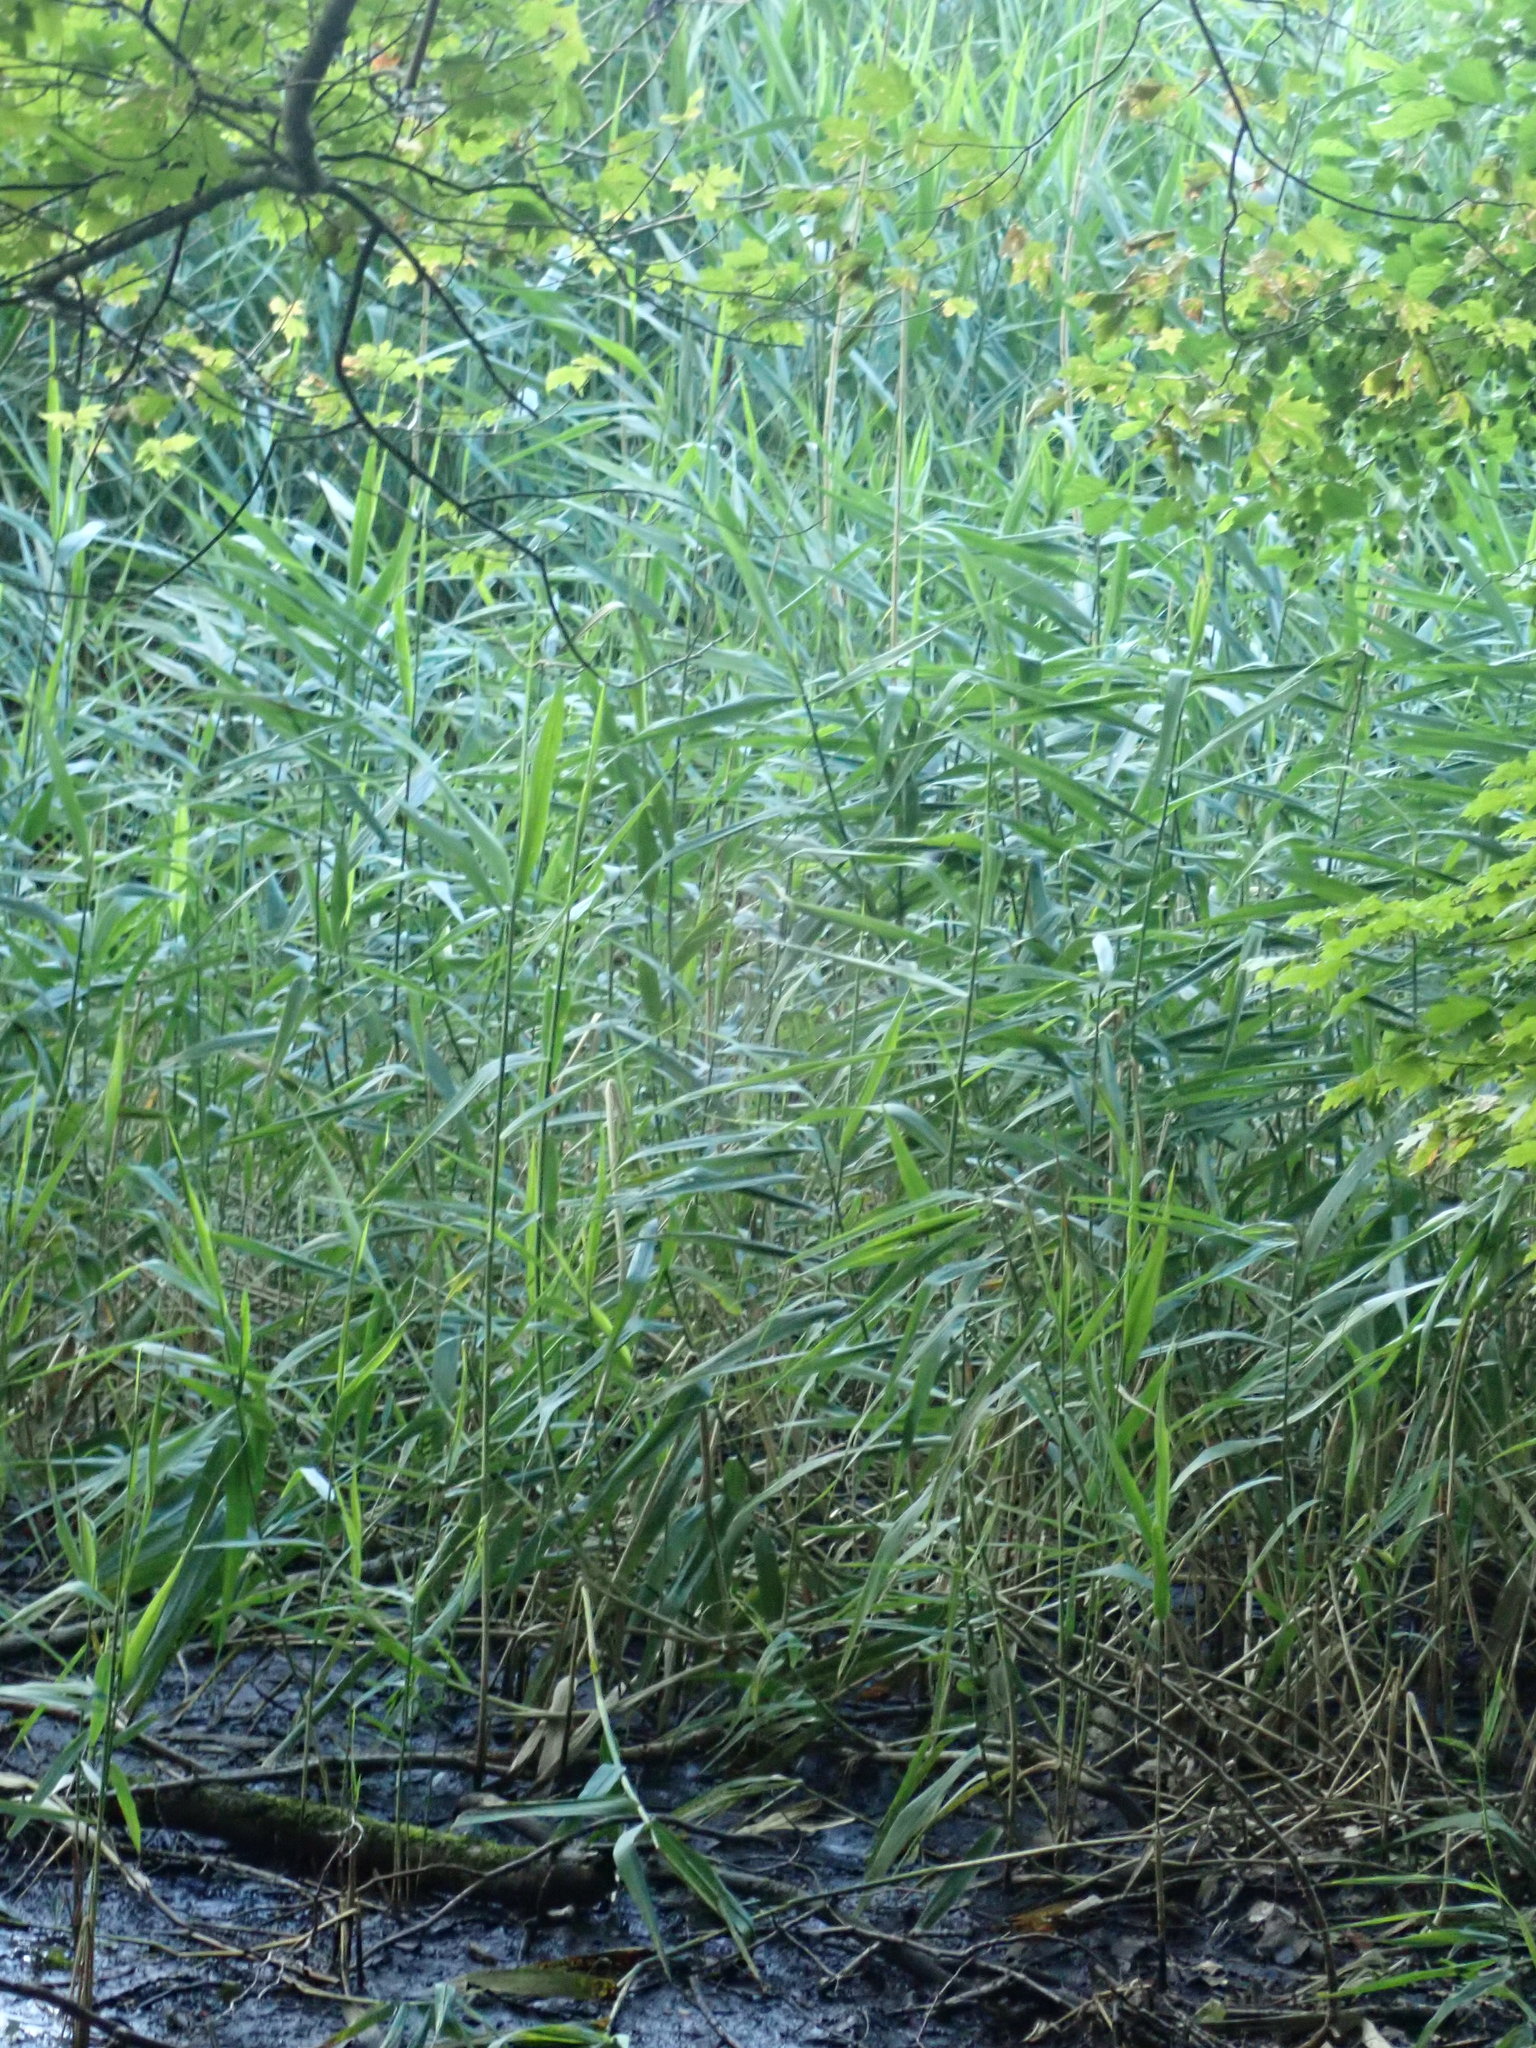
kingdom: Plantae
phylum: Tracheophyta
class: Liliopsida
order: Poales
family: Poaceae
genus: Phragmites
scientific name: Phragmites australis
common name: Common reed
